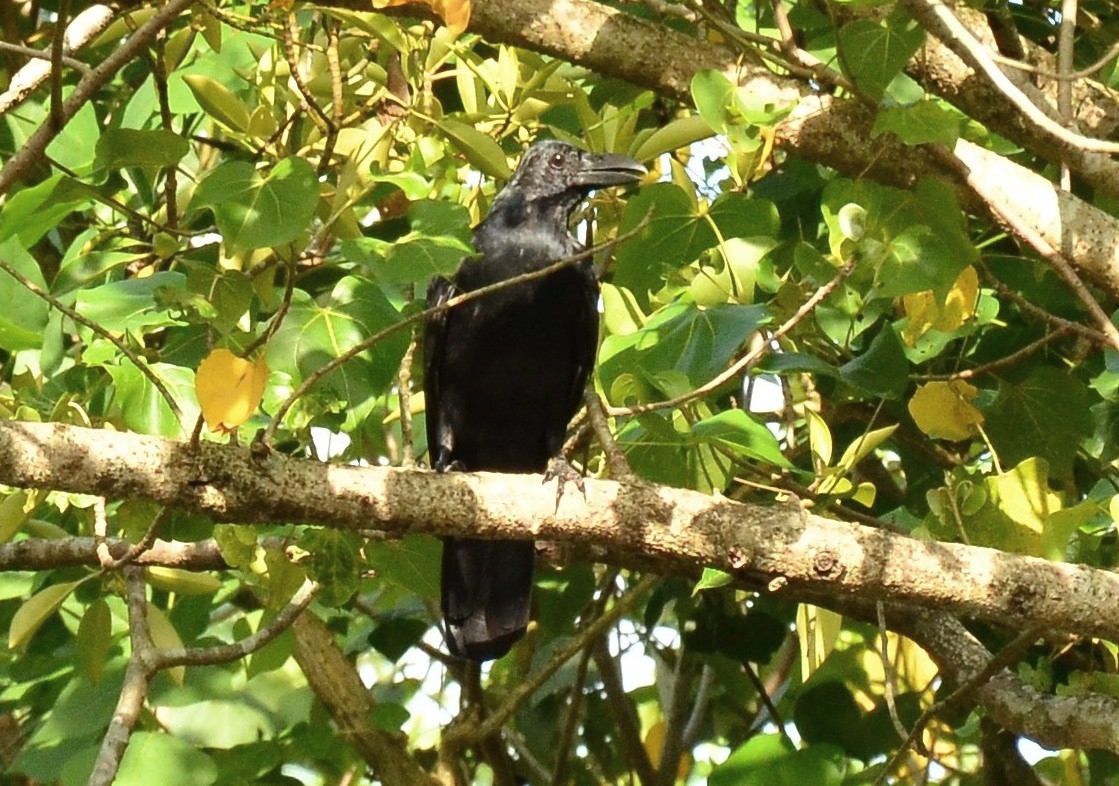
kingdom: Animalia
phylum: Chordata
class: Aves
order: Passeriformes
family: Corvidae
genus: Corvus
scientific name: Corvus macrorhynchos
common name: Large-billed crow
